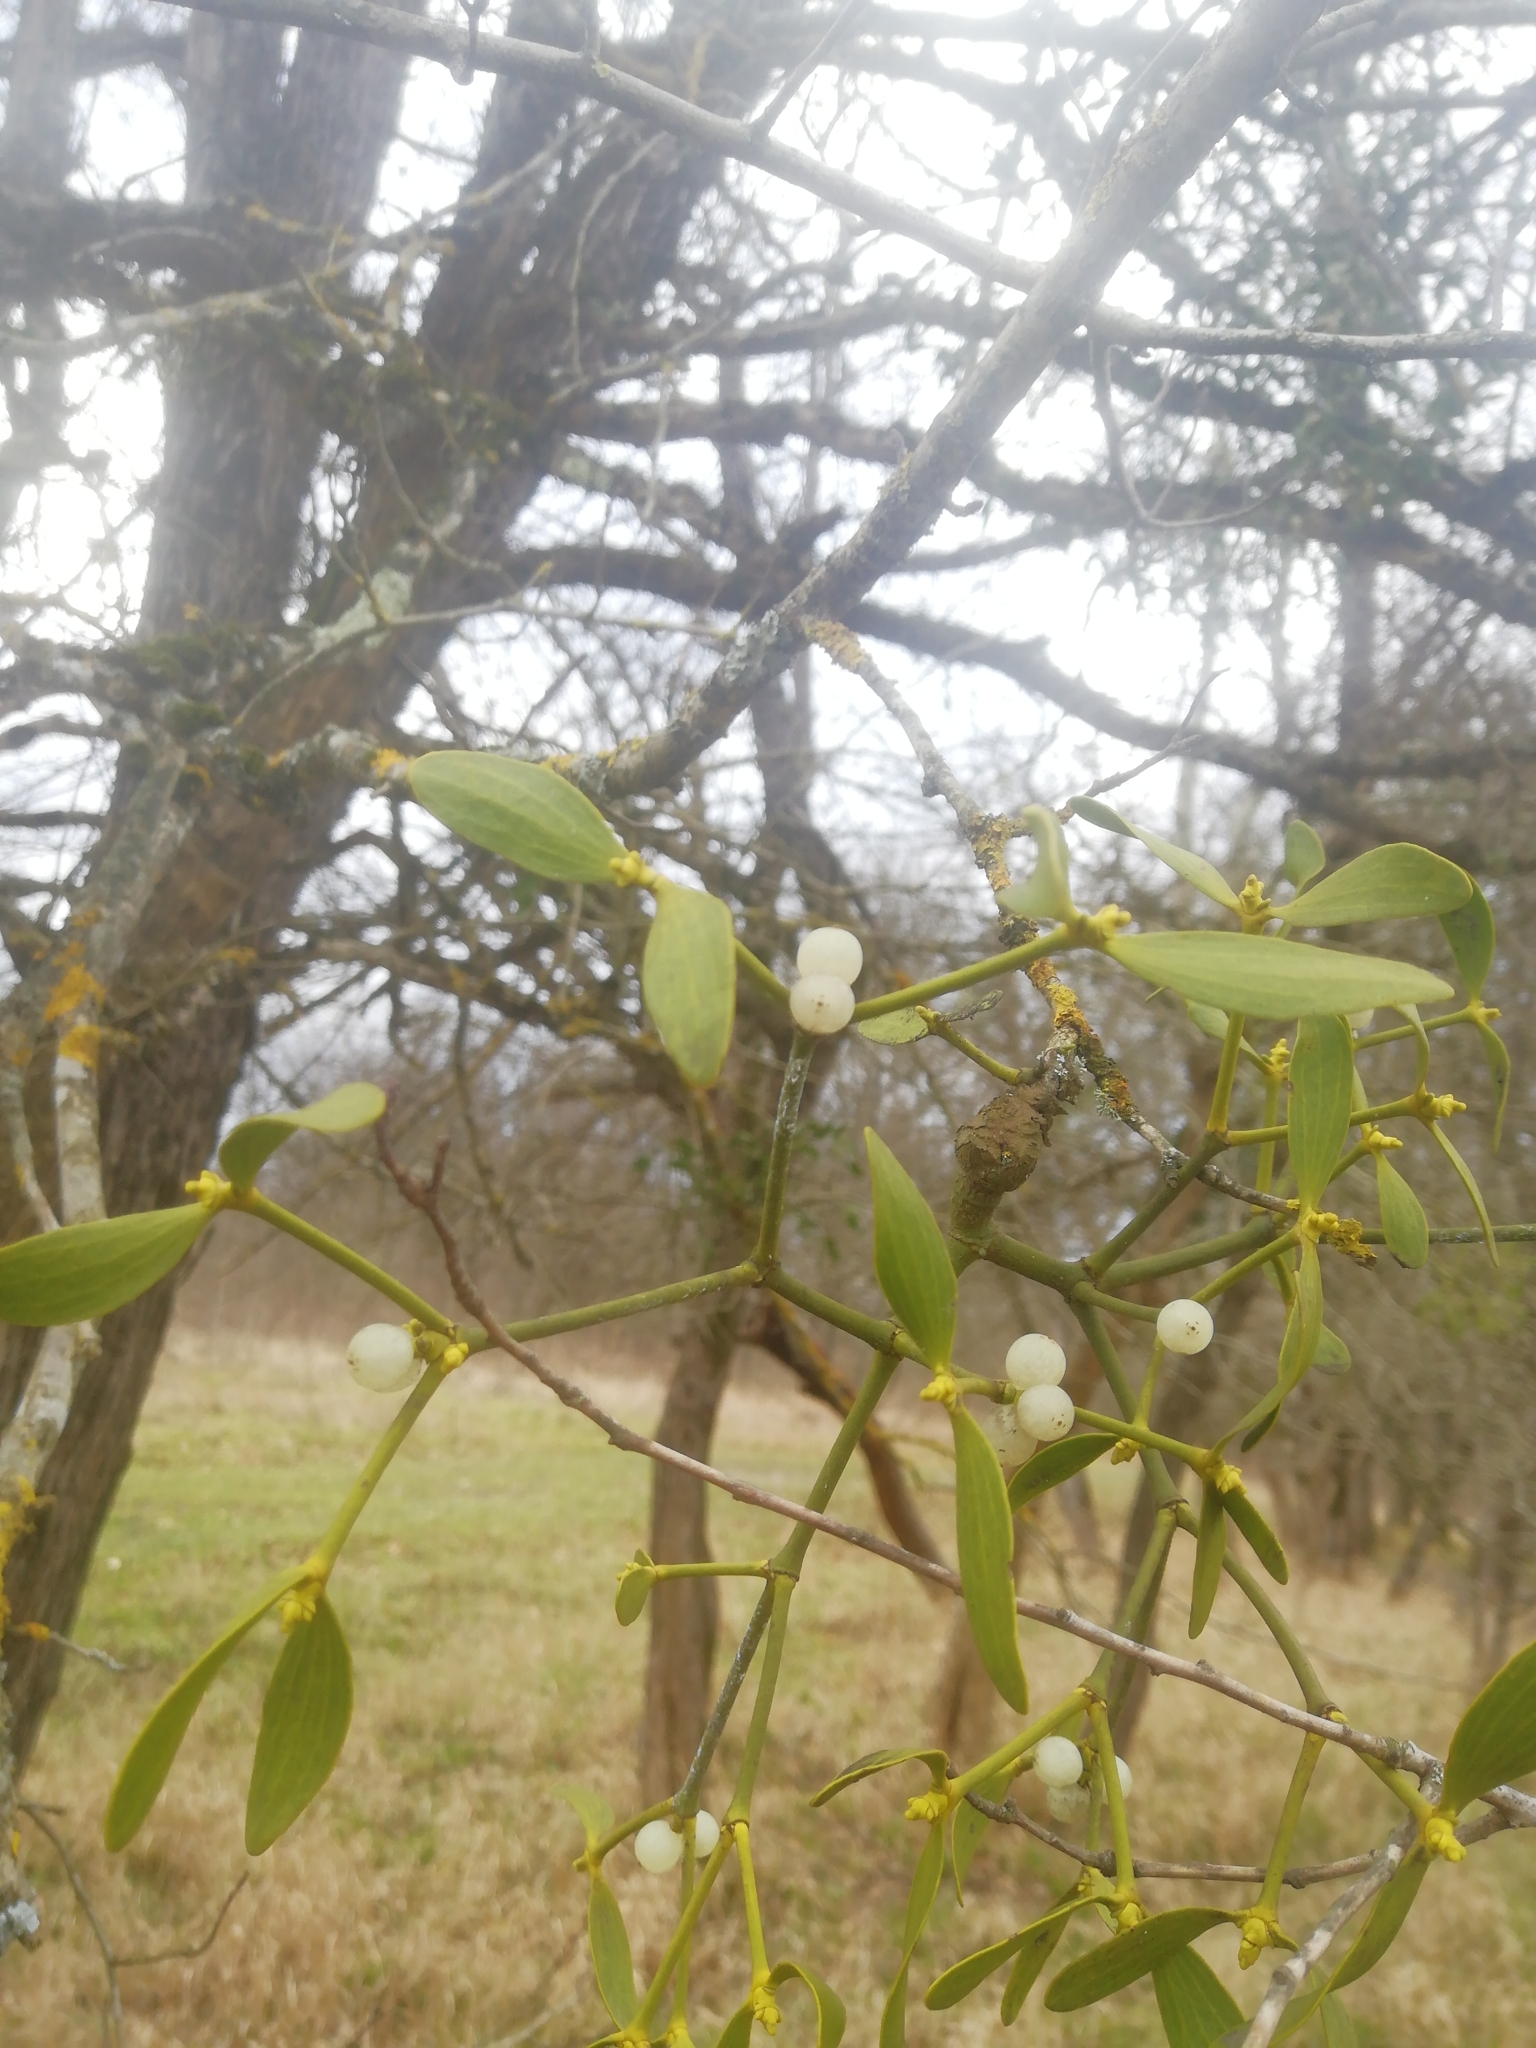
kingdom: Plantae
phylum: Tracheophyta
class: Magnoliopsida
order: Santalales
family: Viscaceae
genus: Viscum
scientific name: Viscum album
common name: Mistletoe
